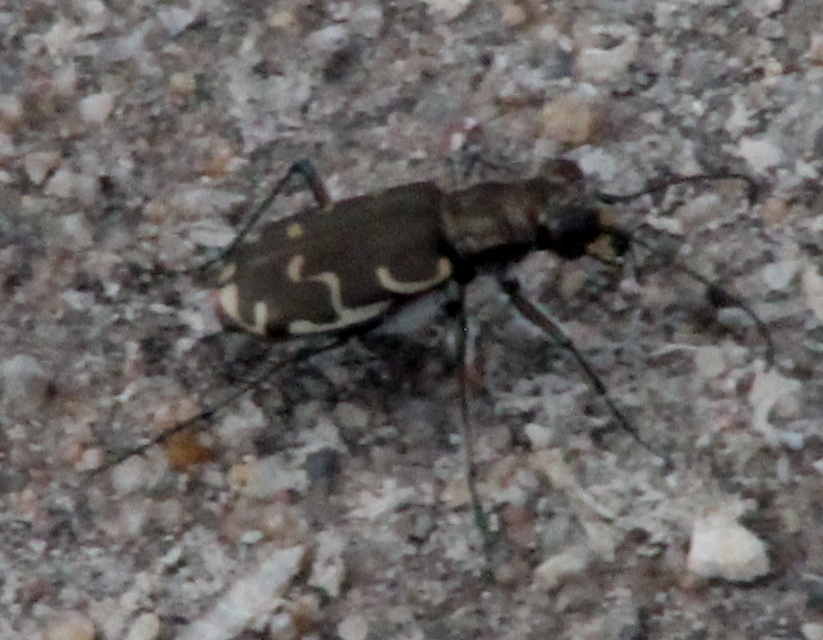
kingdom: Animalia
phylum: Arthropoda
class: Insecta
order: Coleoptera
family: Carabidae
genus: Cicindela
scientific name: Cicindela repanda
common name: Bronzed tiger beetle
